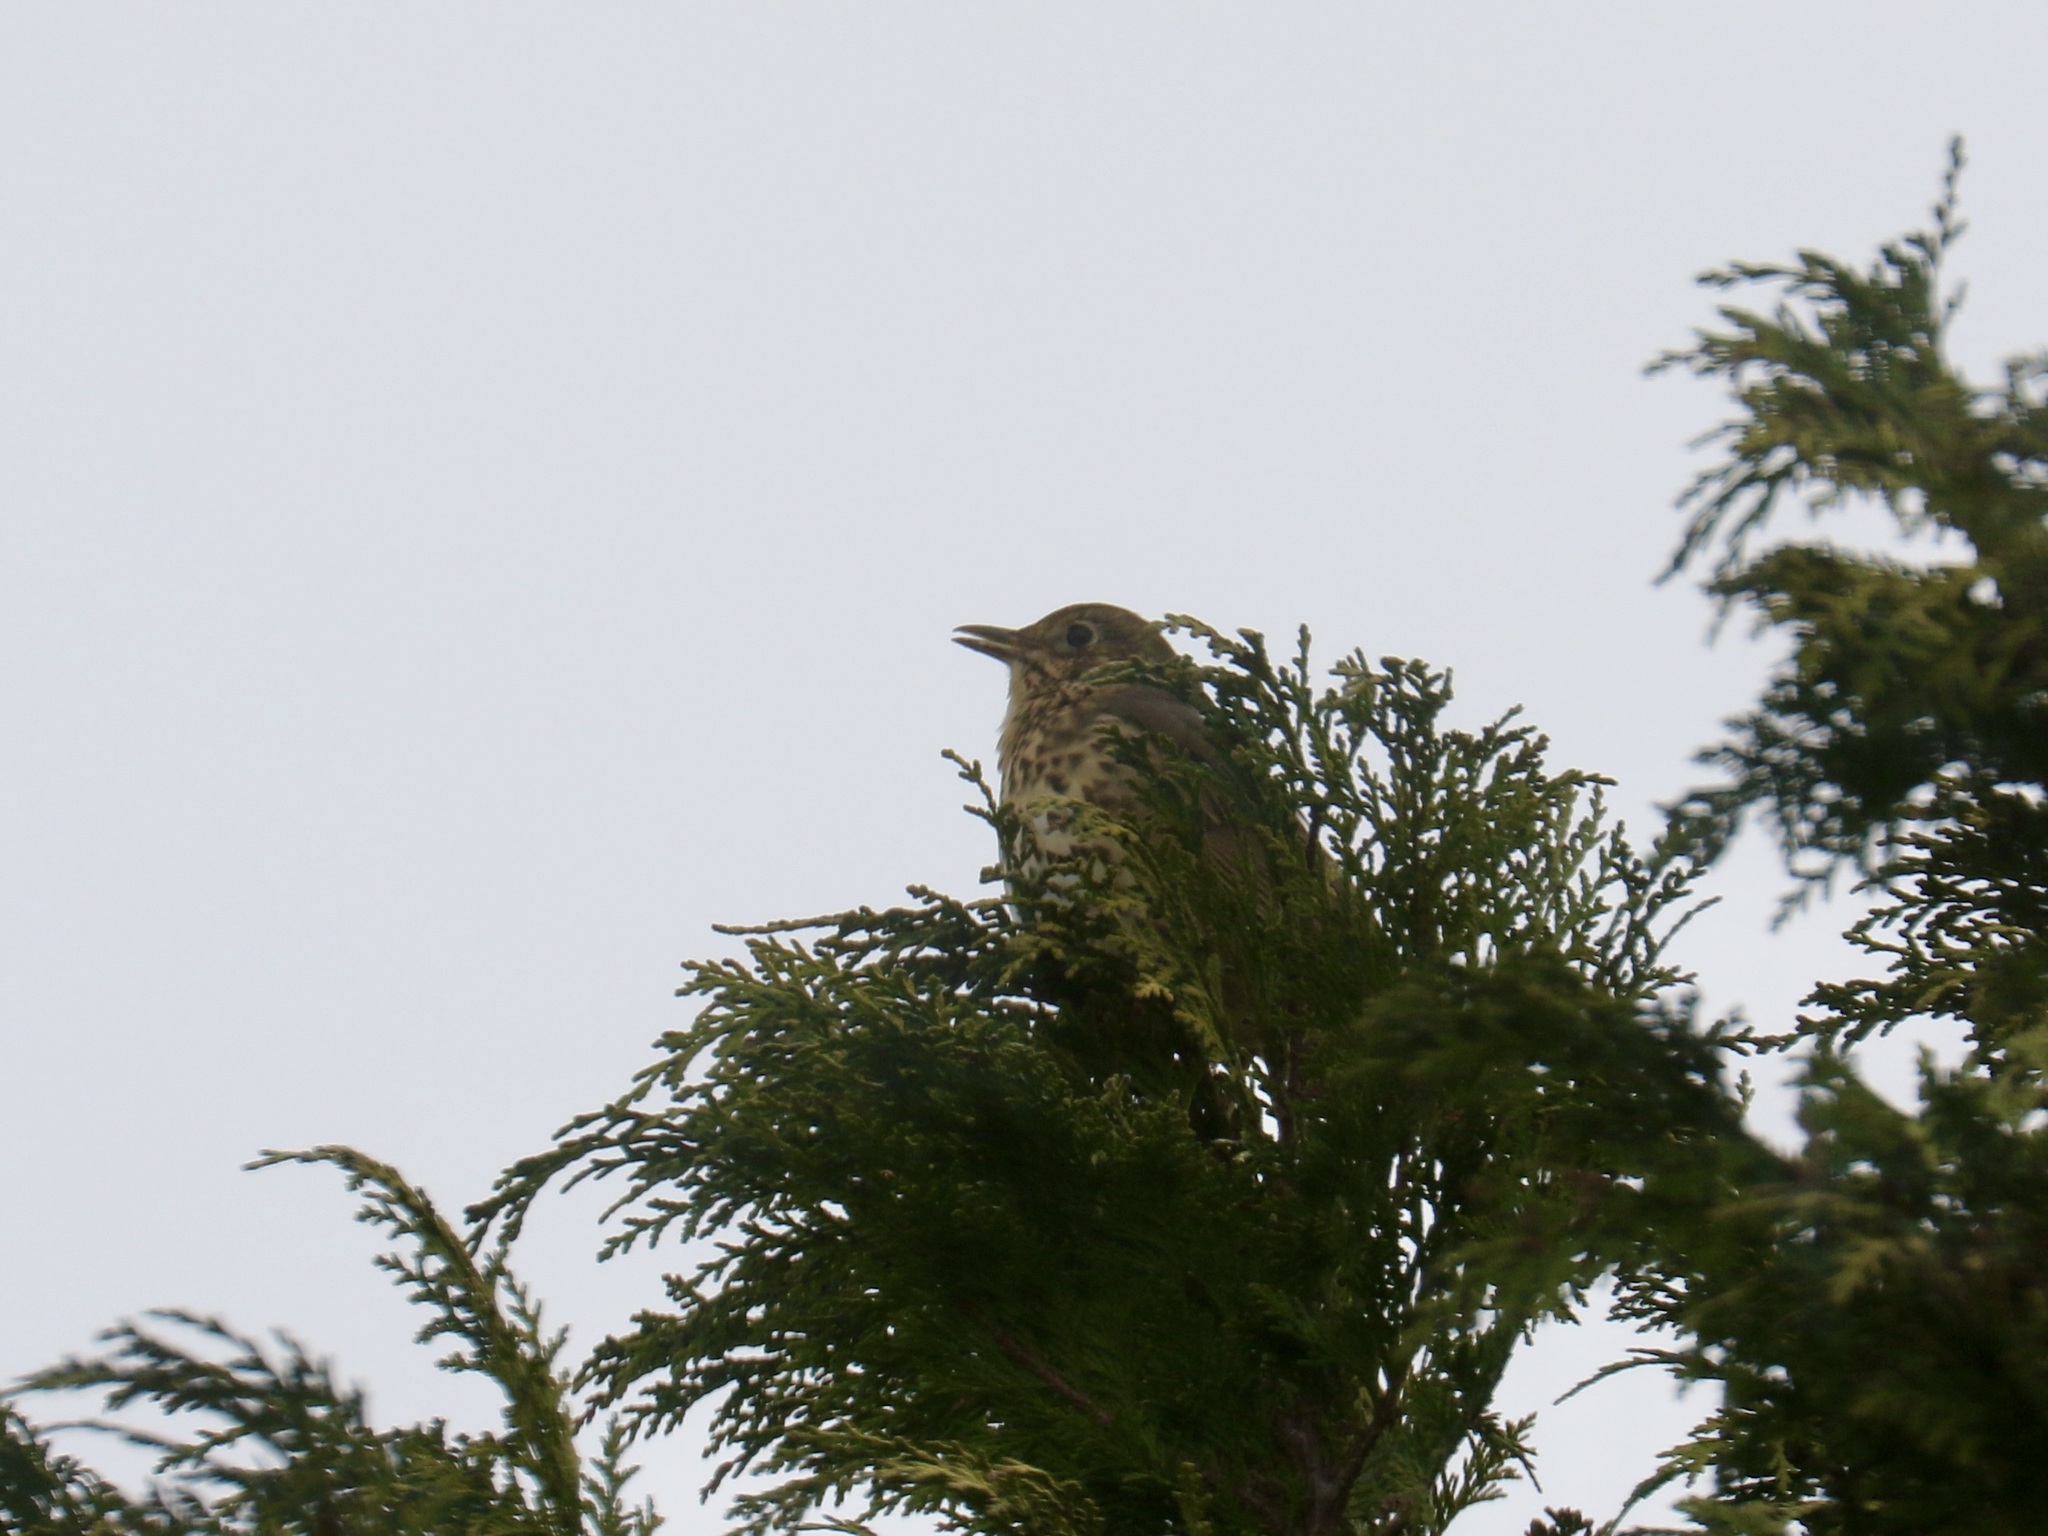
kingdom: Animalia
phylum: Chordata
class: Aves
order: Passeriformes
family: Turdidae
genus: Turdus
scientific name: Turdus philomelos
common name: Song thrush
